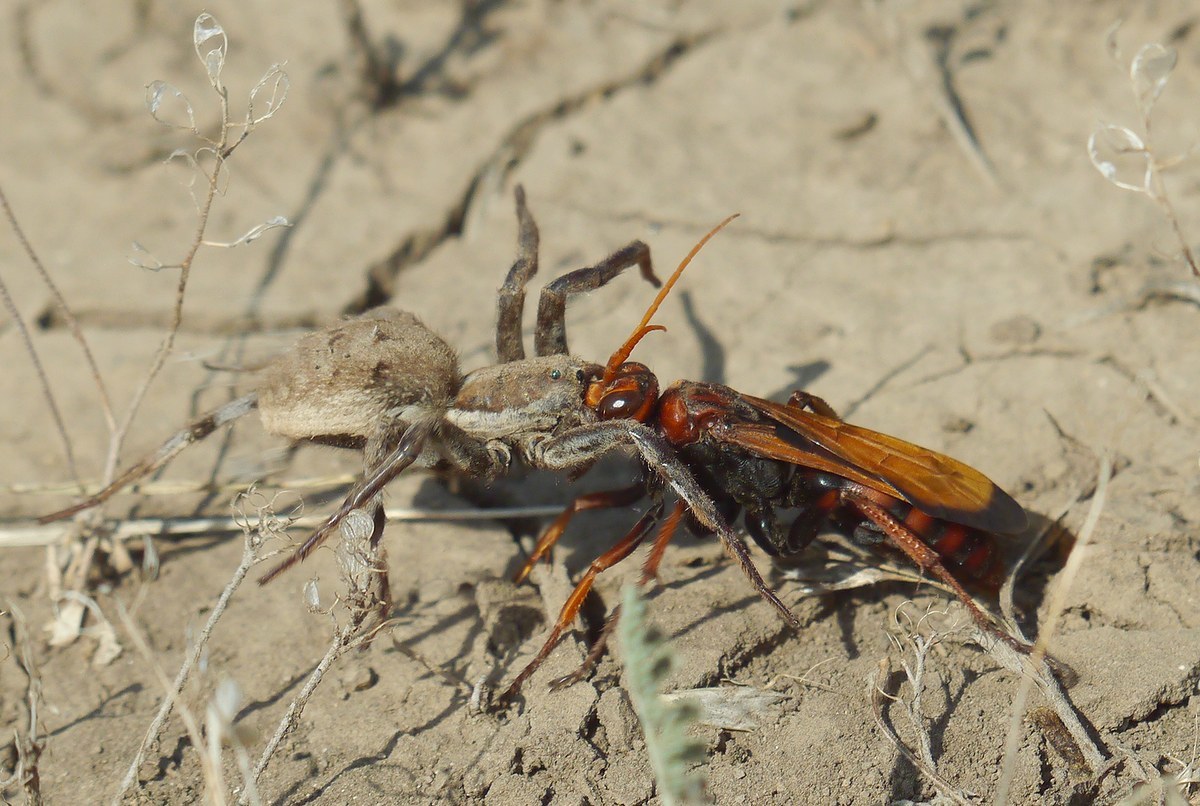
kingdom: Animalia
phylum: Arthropoda
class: Insecta
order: Hymenoptera
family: Pompilidae
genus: Cryptocheilus
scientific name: Cryptocheilus rubellus
